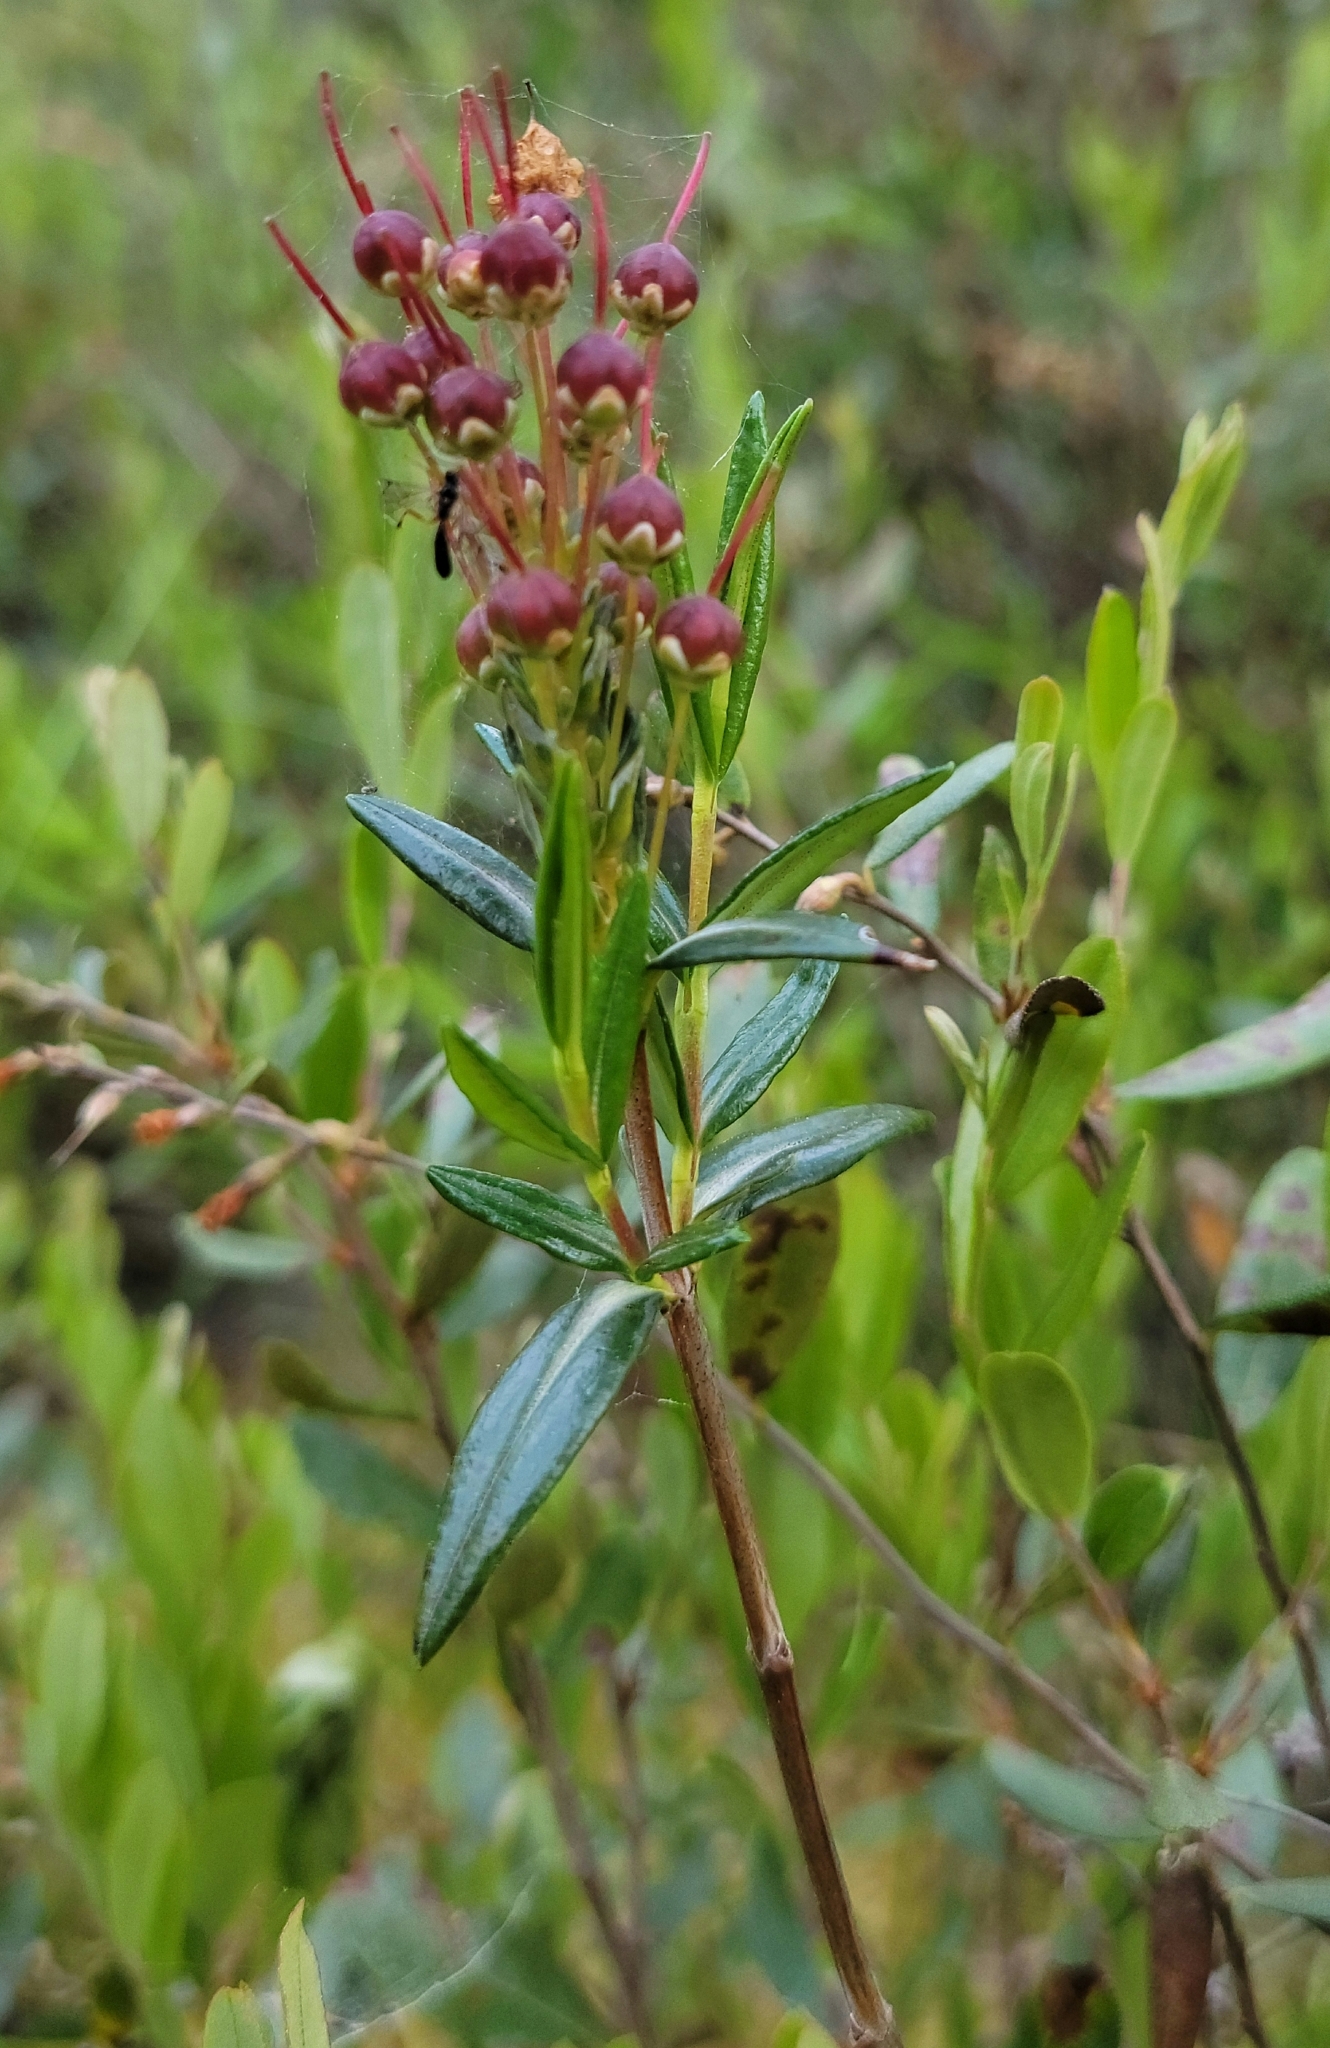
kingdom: Plantae
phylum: Tracheophyta
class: Magnoliopsida
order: Ericales
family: Ericaceae
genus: Kalmia
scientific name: Kalmia polifolia
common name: Bog-laurel
